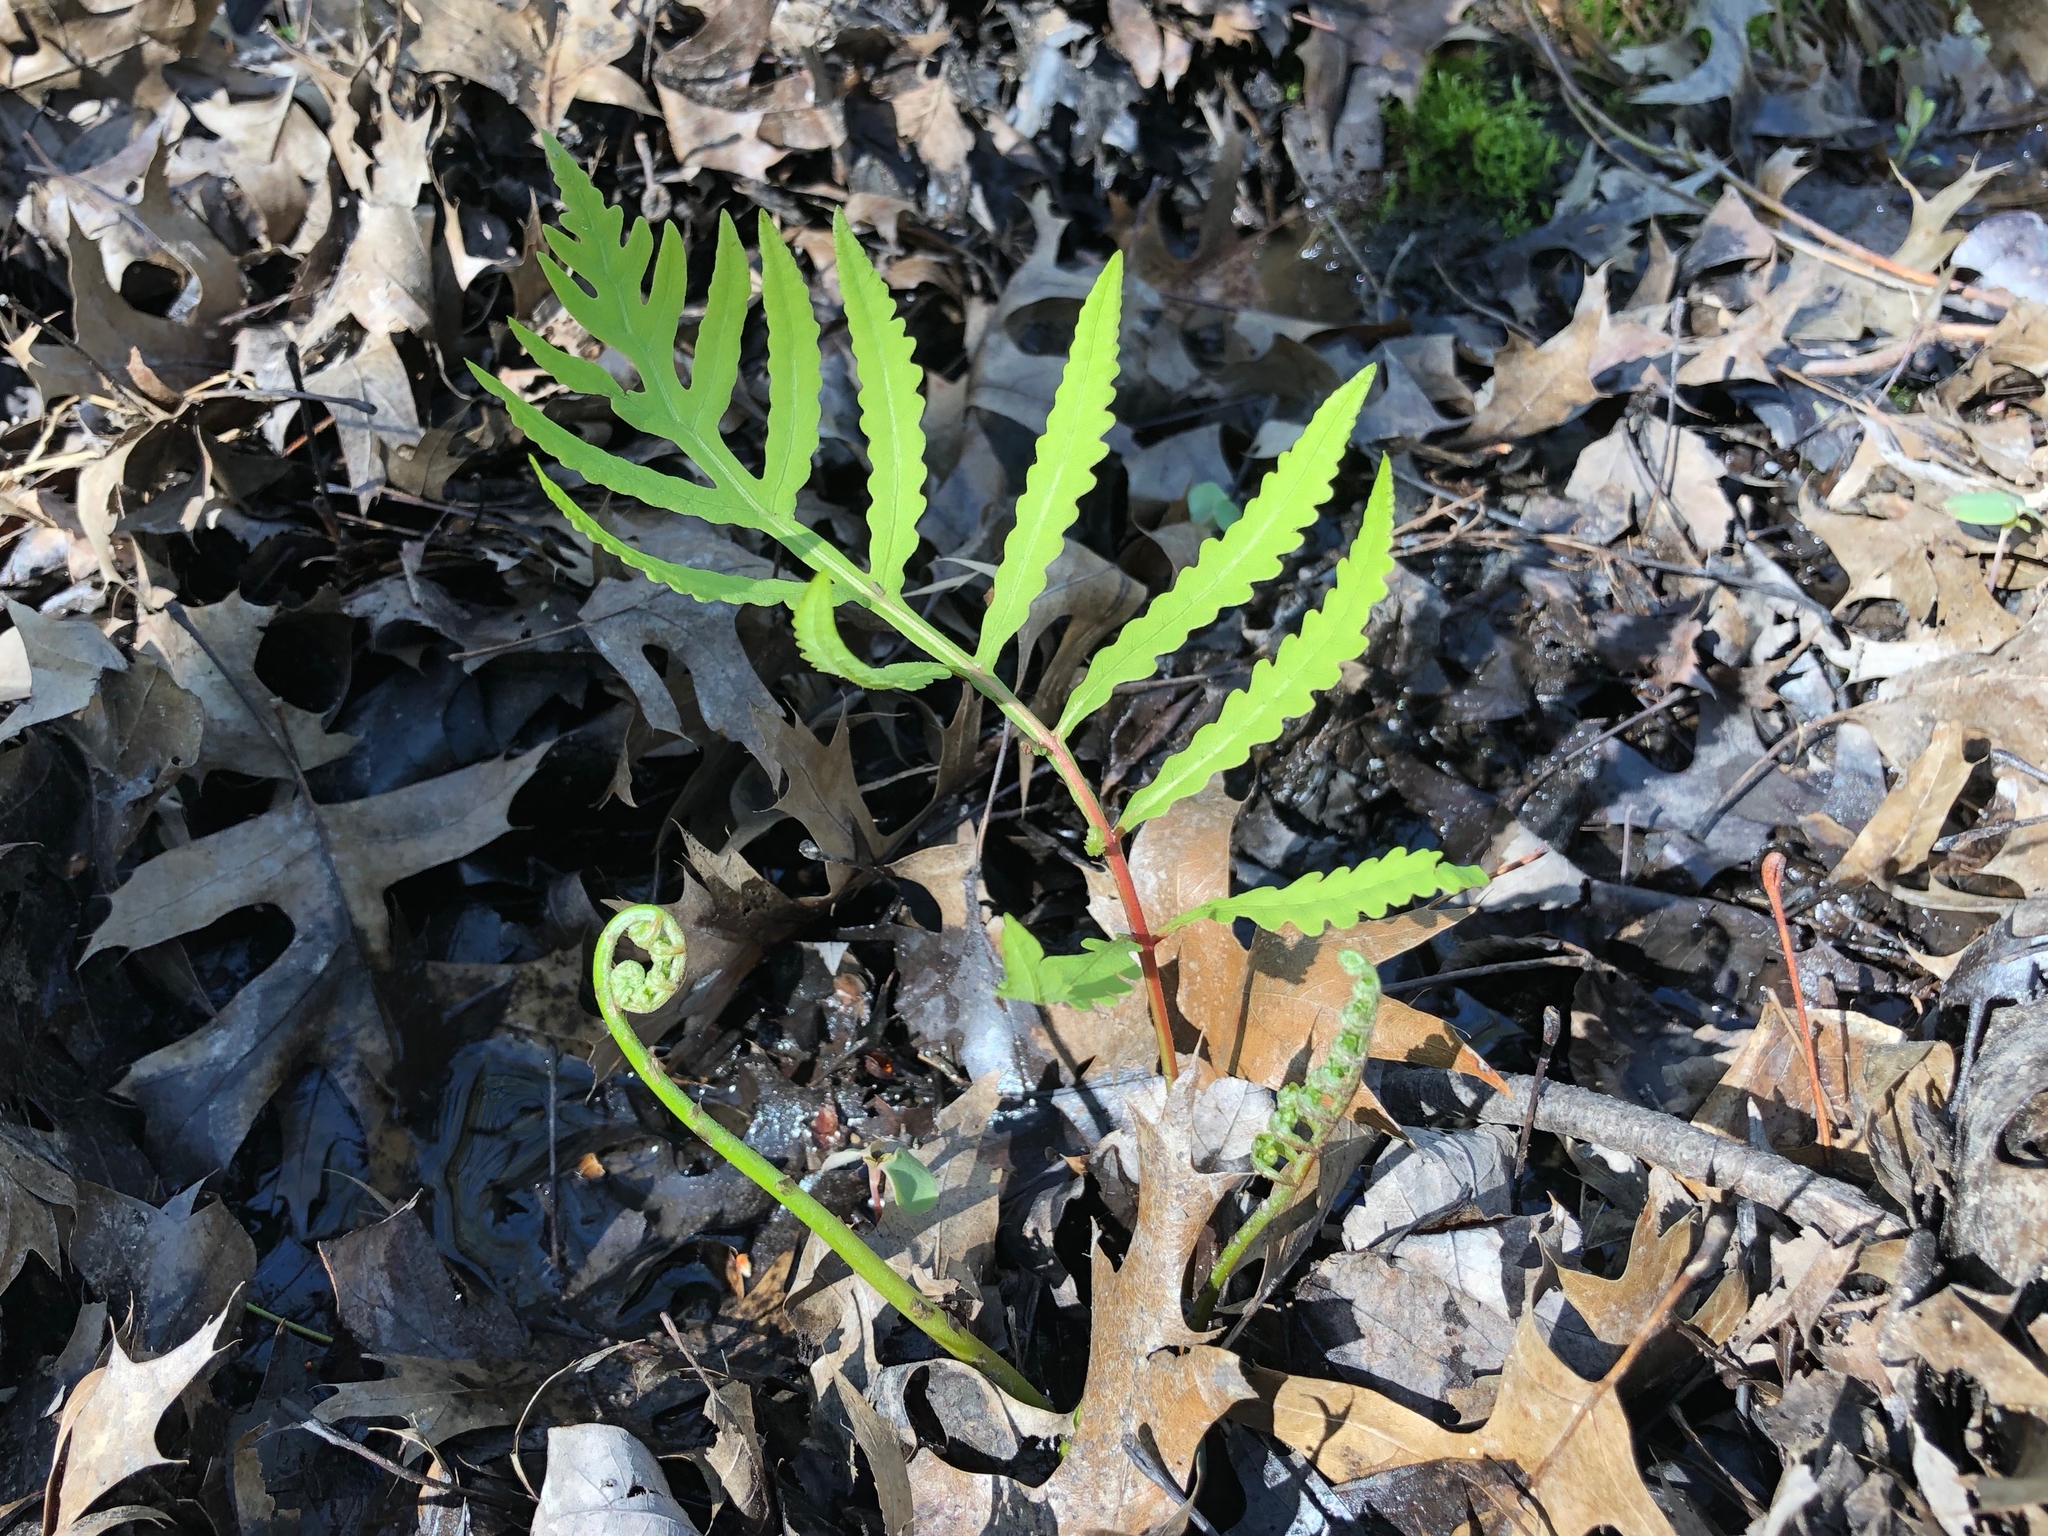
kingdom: Plantae
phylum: Tracheophyta
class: Polypodiopsida
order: Polypodiales
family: Onocleaceae
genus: Onoclea
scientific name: Onoclea sensibilis
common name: Sensitive fern
